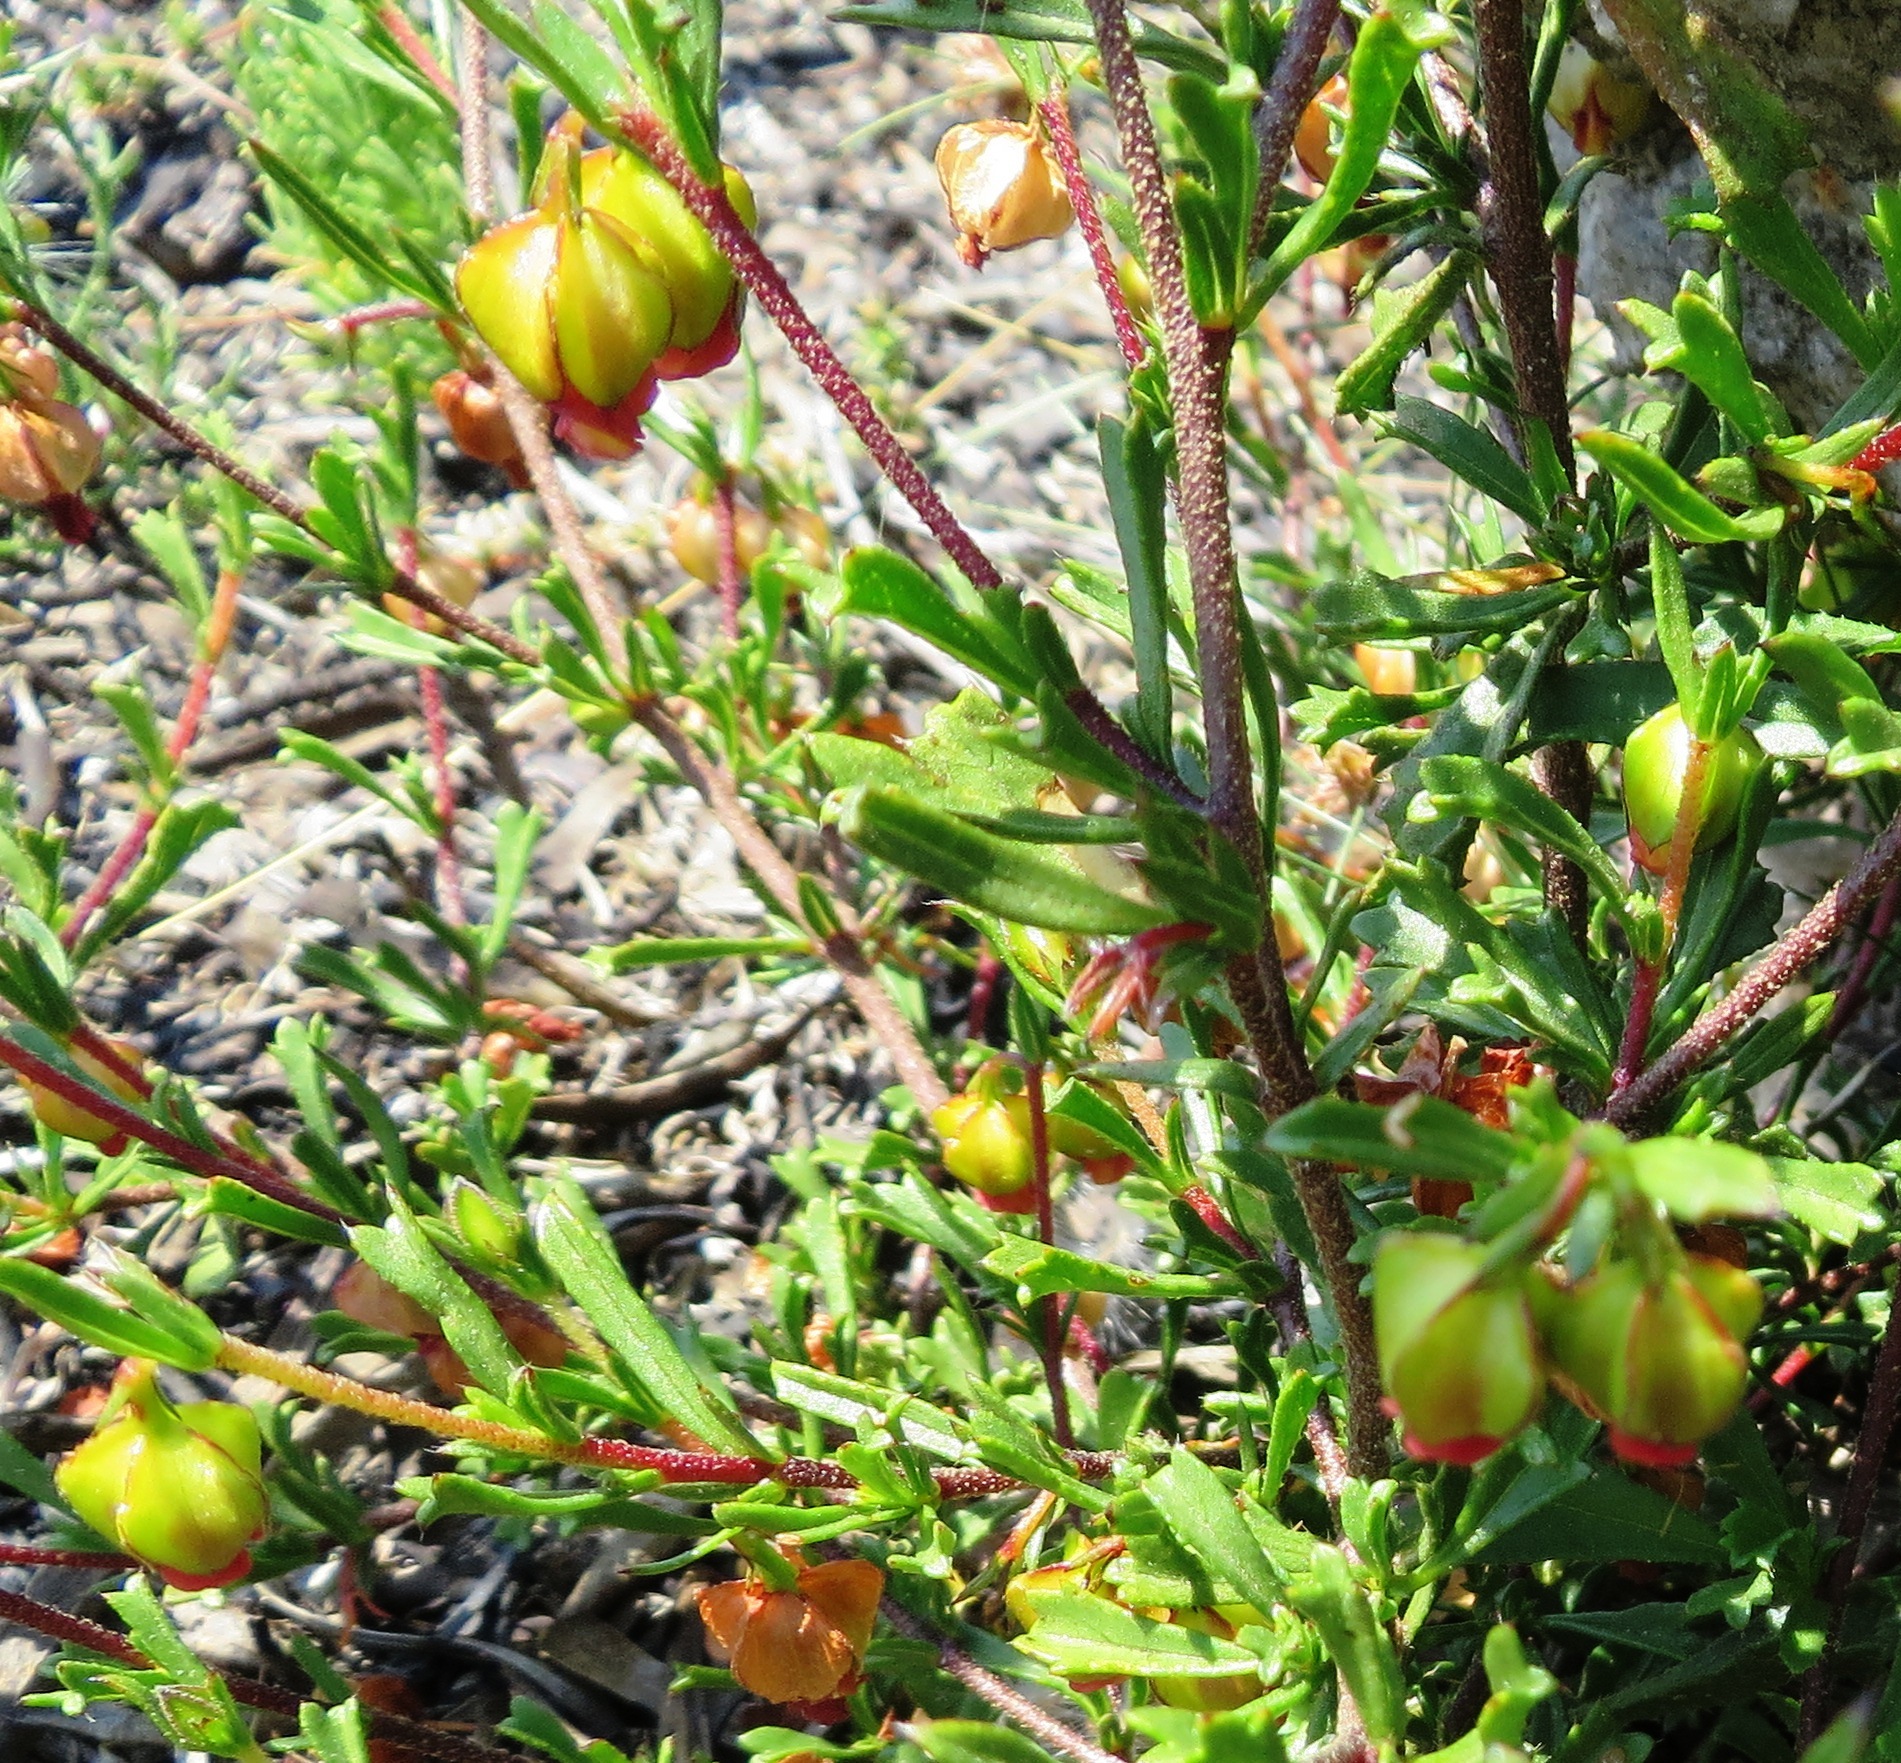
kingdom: Plantae
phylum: Tracheophyta
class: Magnoliopsida
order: Malvales
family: Malvaceae
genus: Hermannia
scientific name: Hermannia angularis
